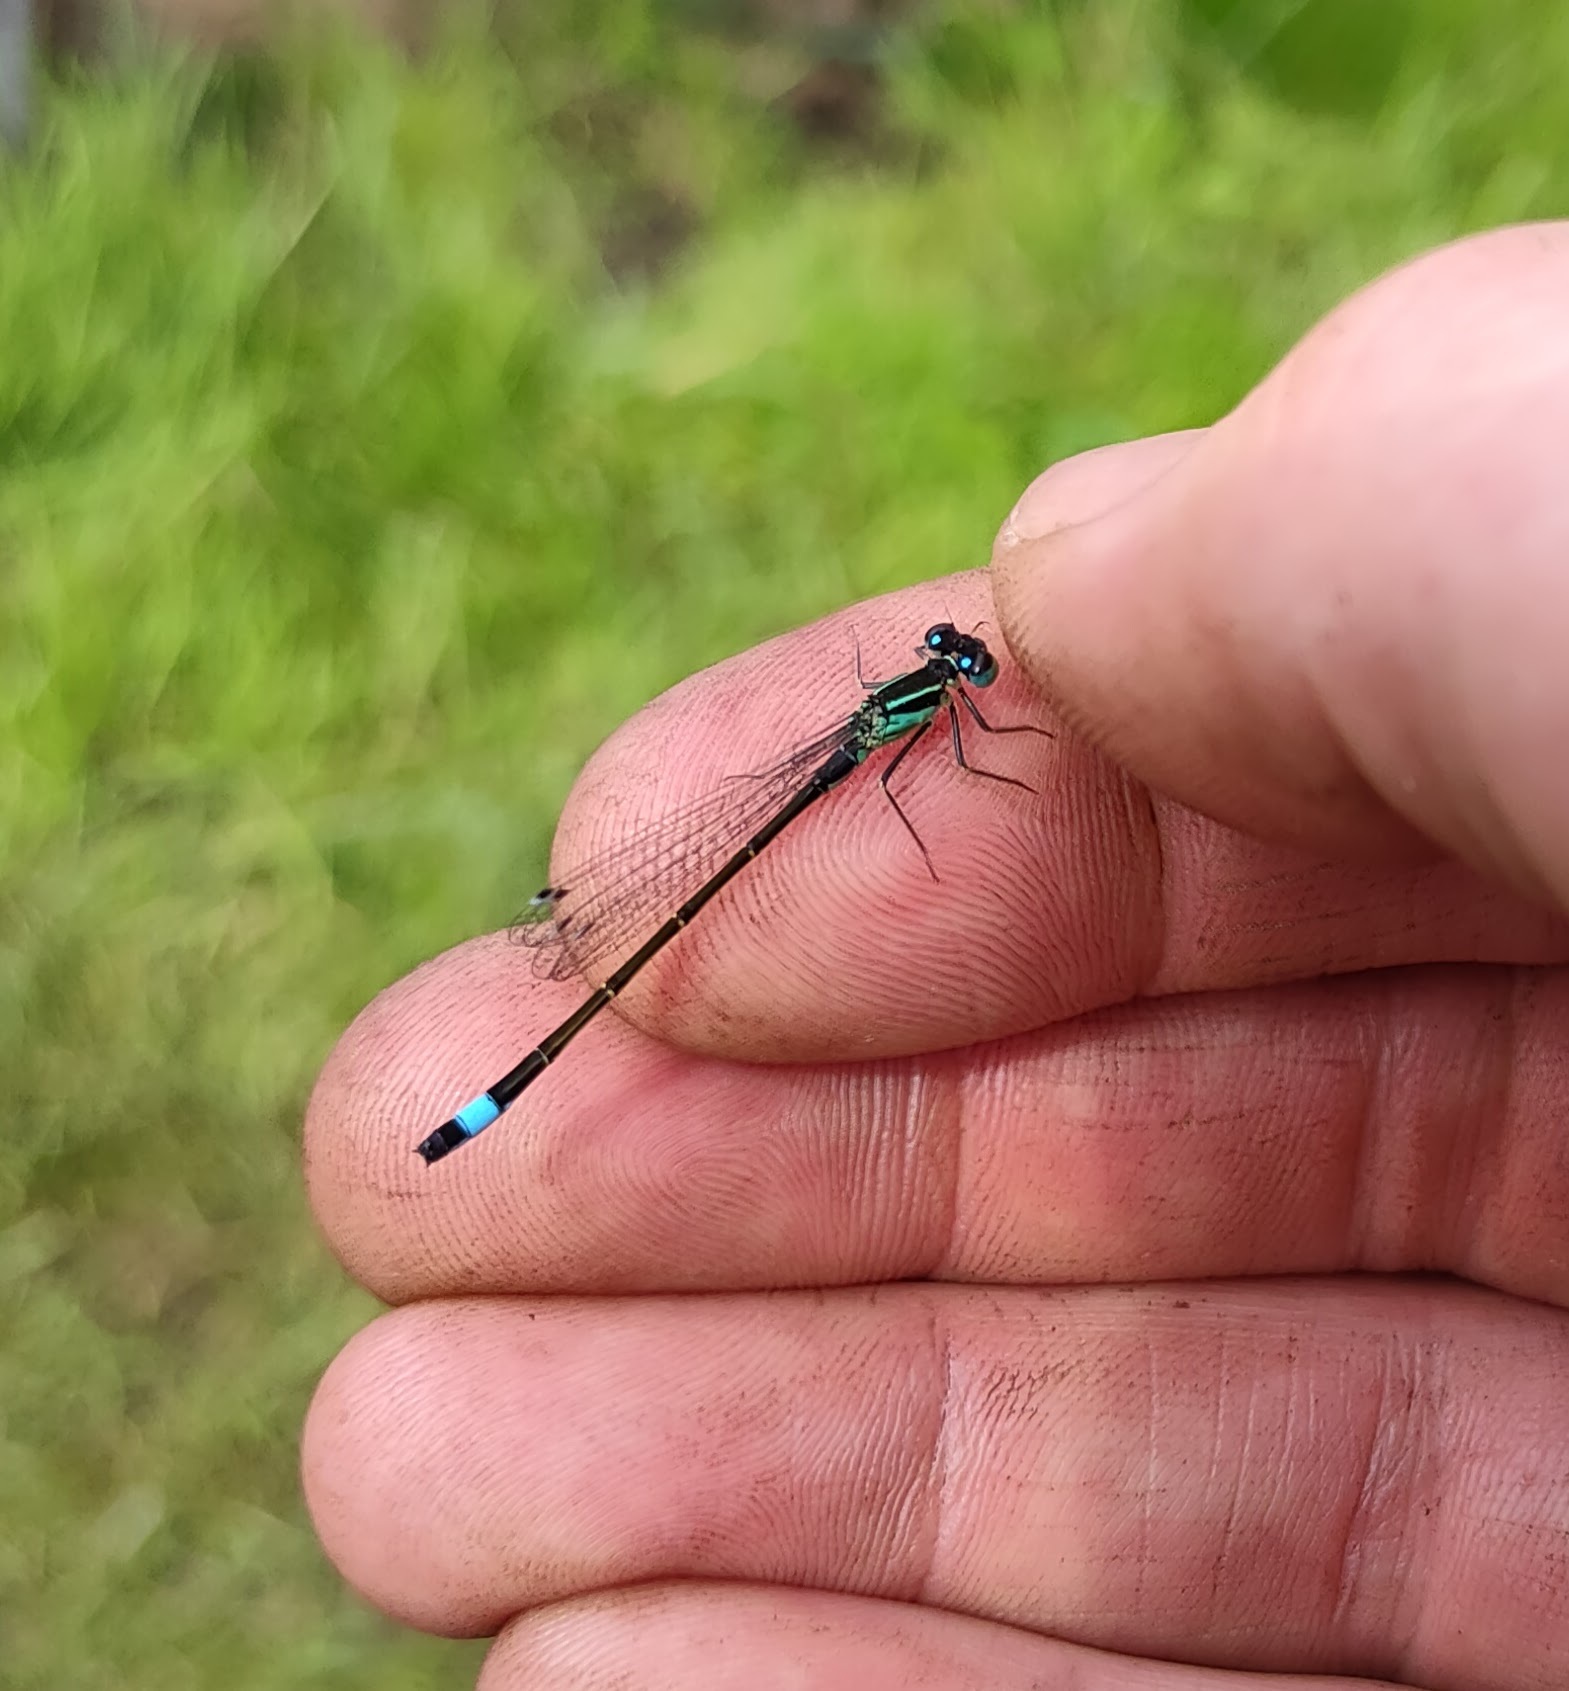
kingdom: Animalia
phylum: Arthropoda
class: Insecta
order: Odonata
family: Coenagrionidae
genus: Ischnura
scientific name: Ischnura elegans
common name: Blue-tailed damselfly
